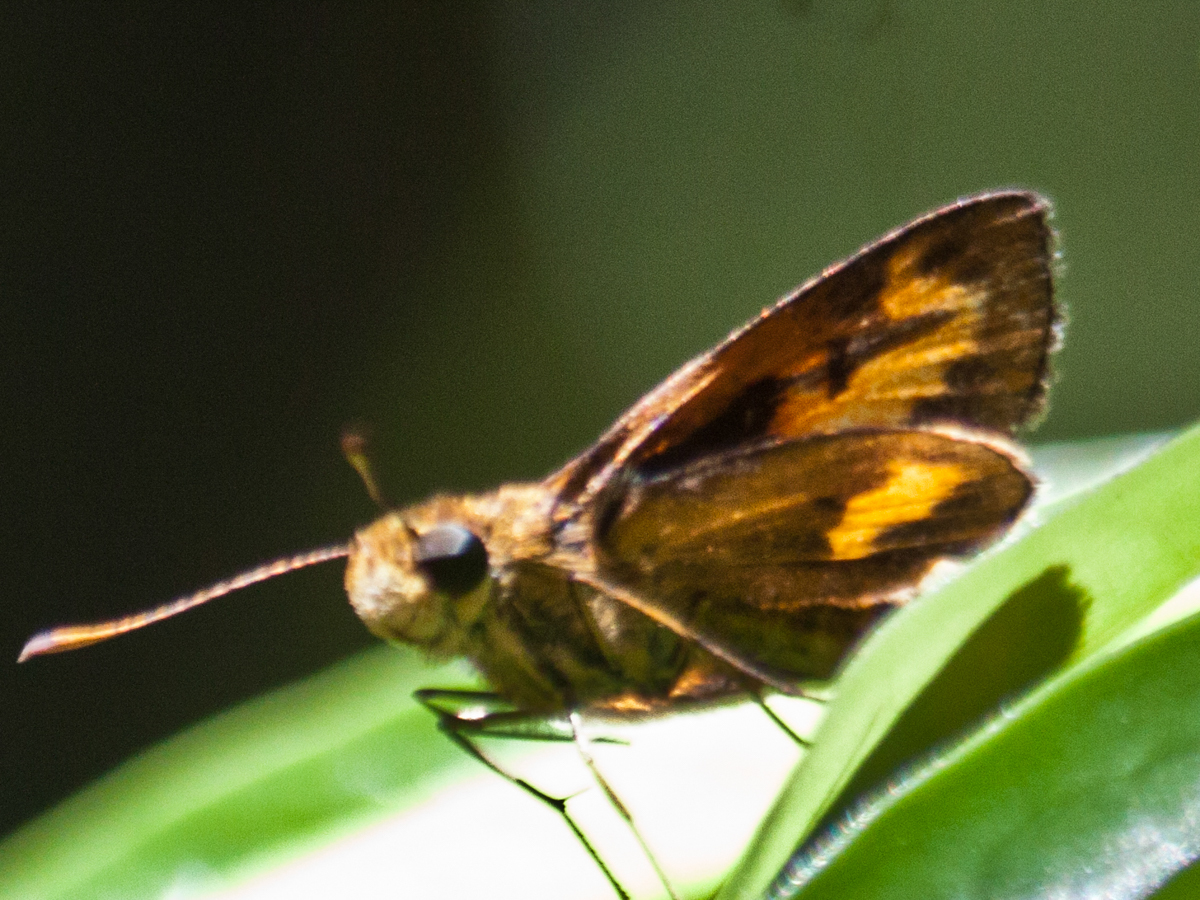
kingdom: Animalia
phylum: Arthropoda
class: Insecta
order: Lepidoptera
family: Hesperiidae
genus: Oriens
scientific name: Oriens gola
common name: Common dartlet
